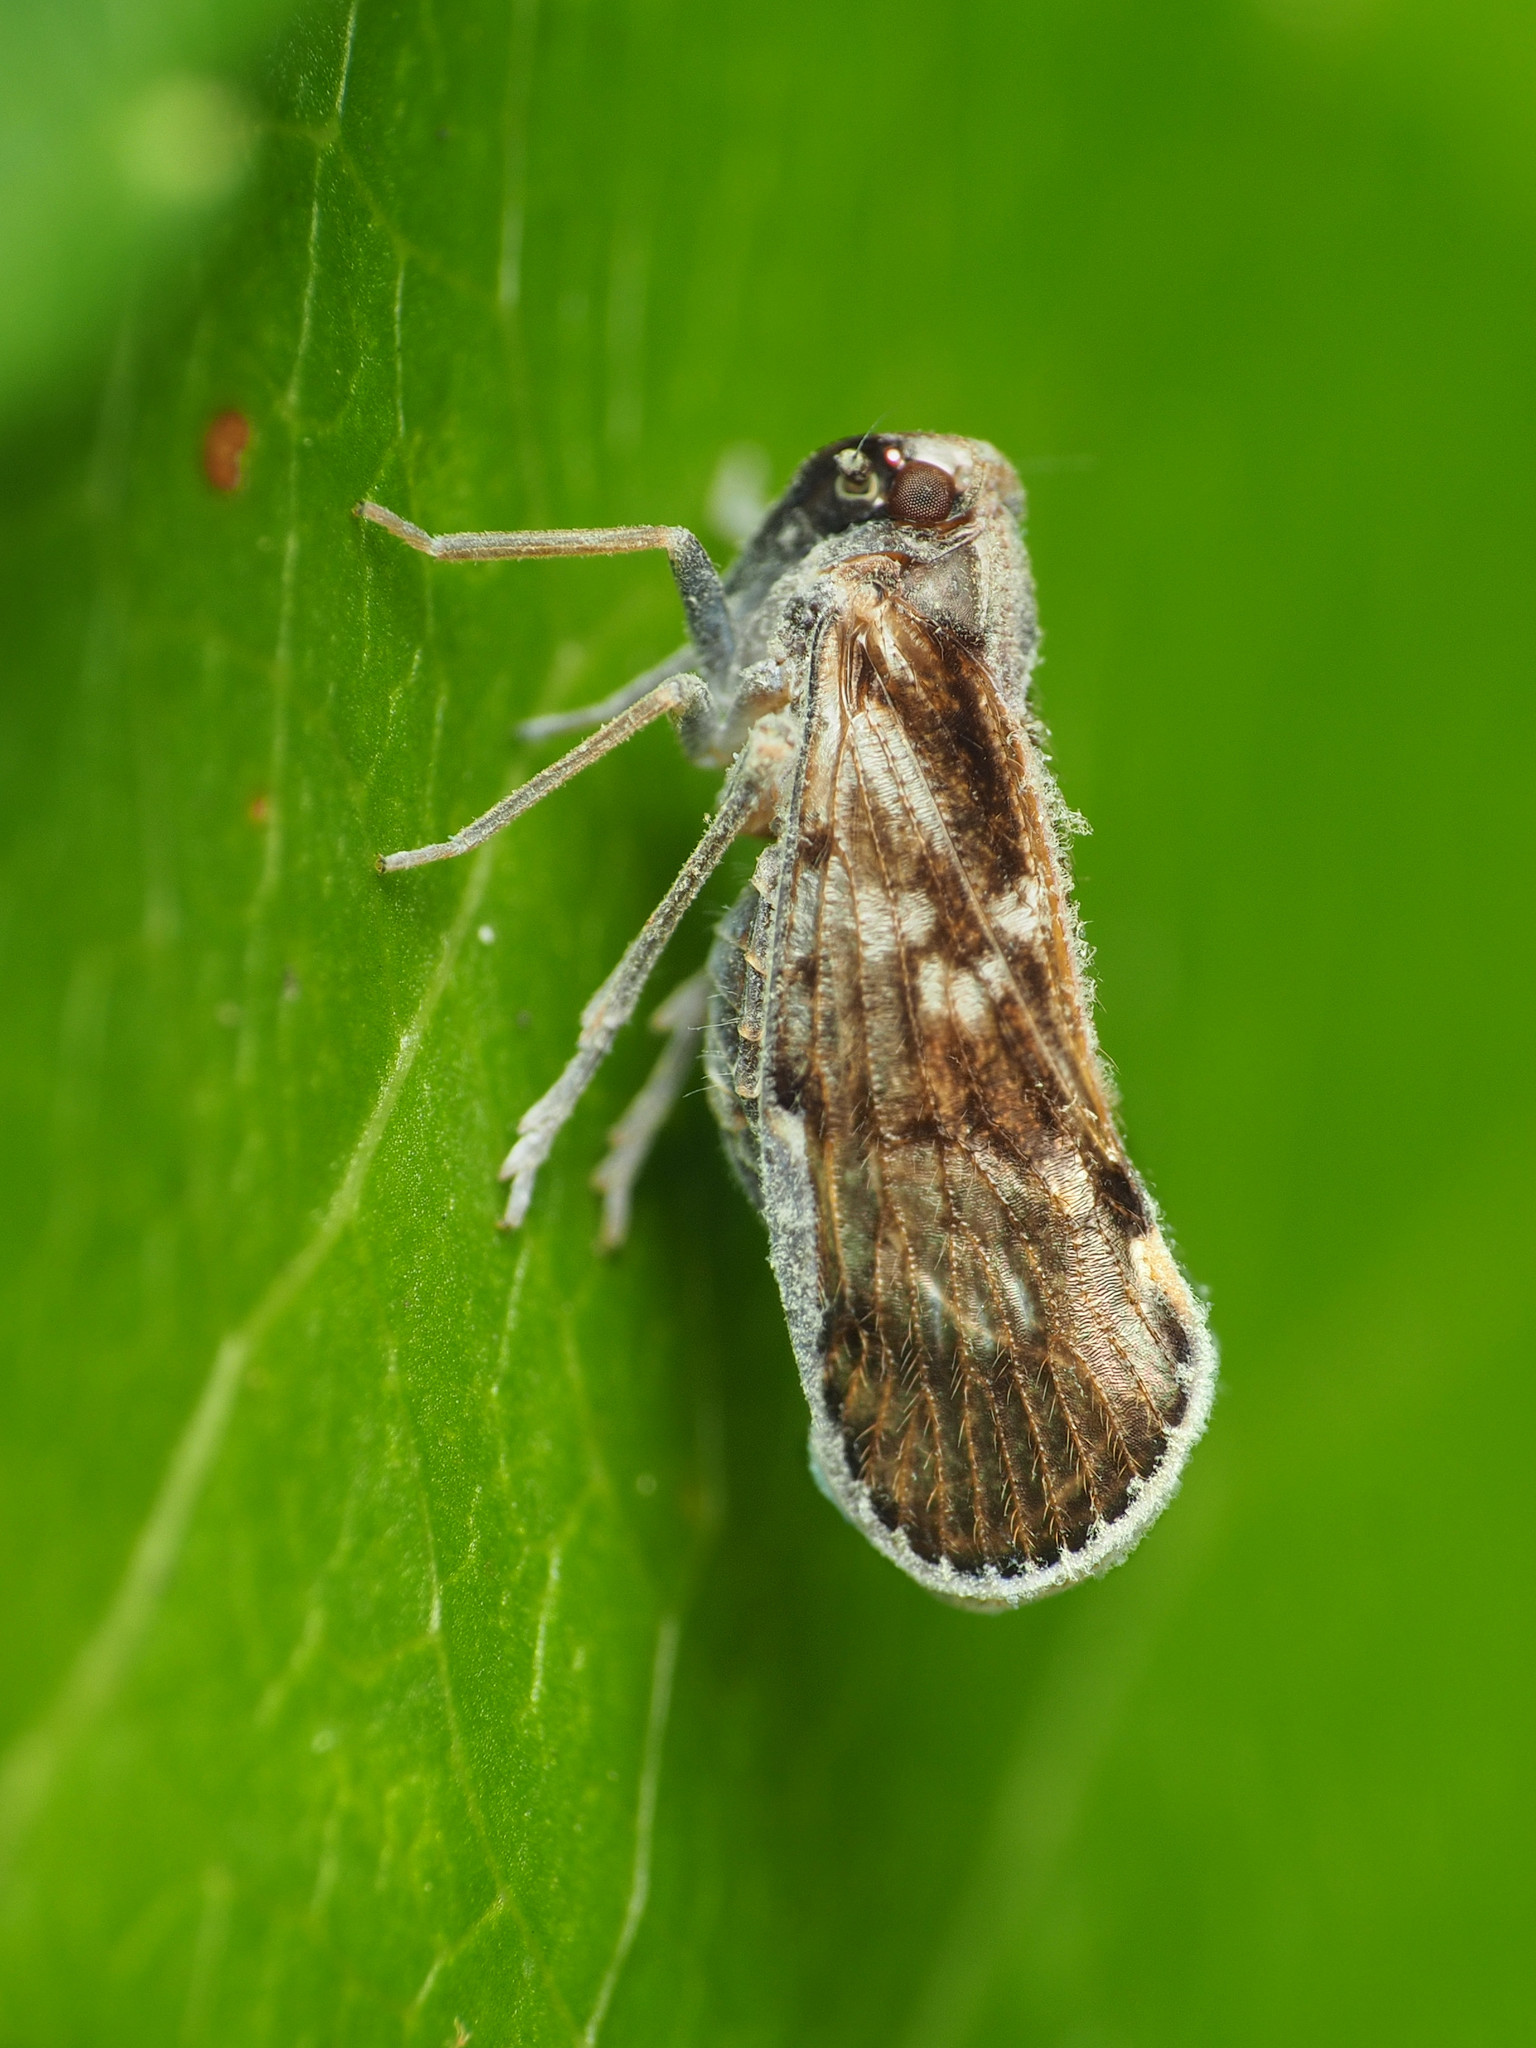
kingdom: Animalia
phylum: Arthropoda
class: Insecta
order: Hemiptera
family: Cixiidae
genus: Pintalia
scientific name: Pintalia vibex
